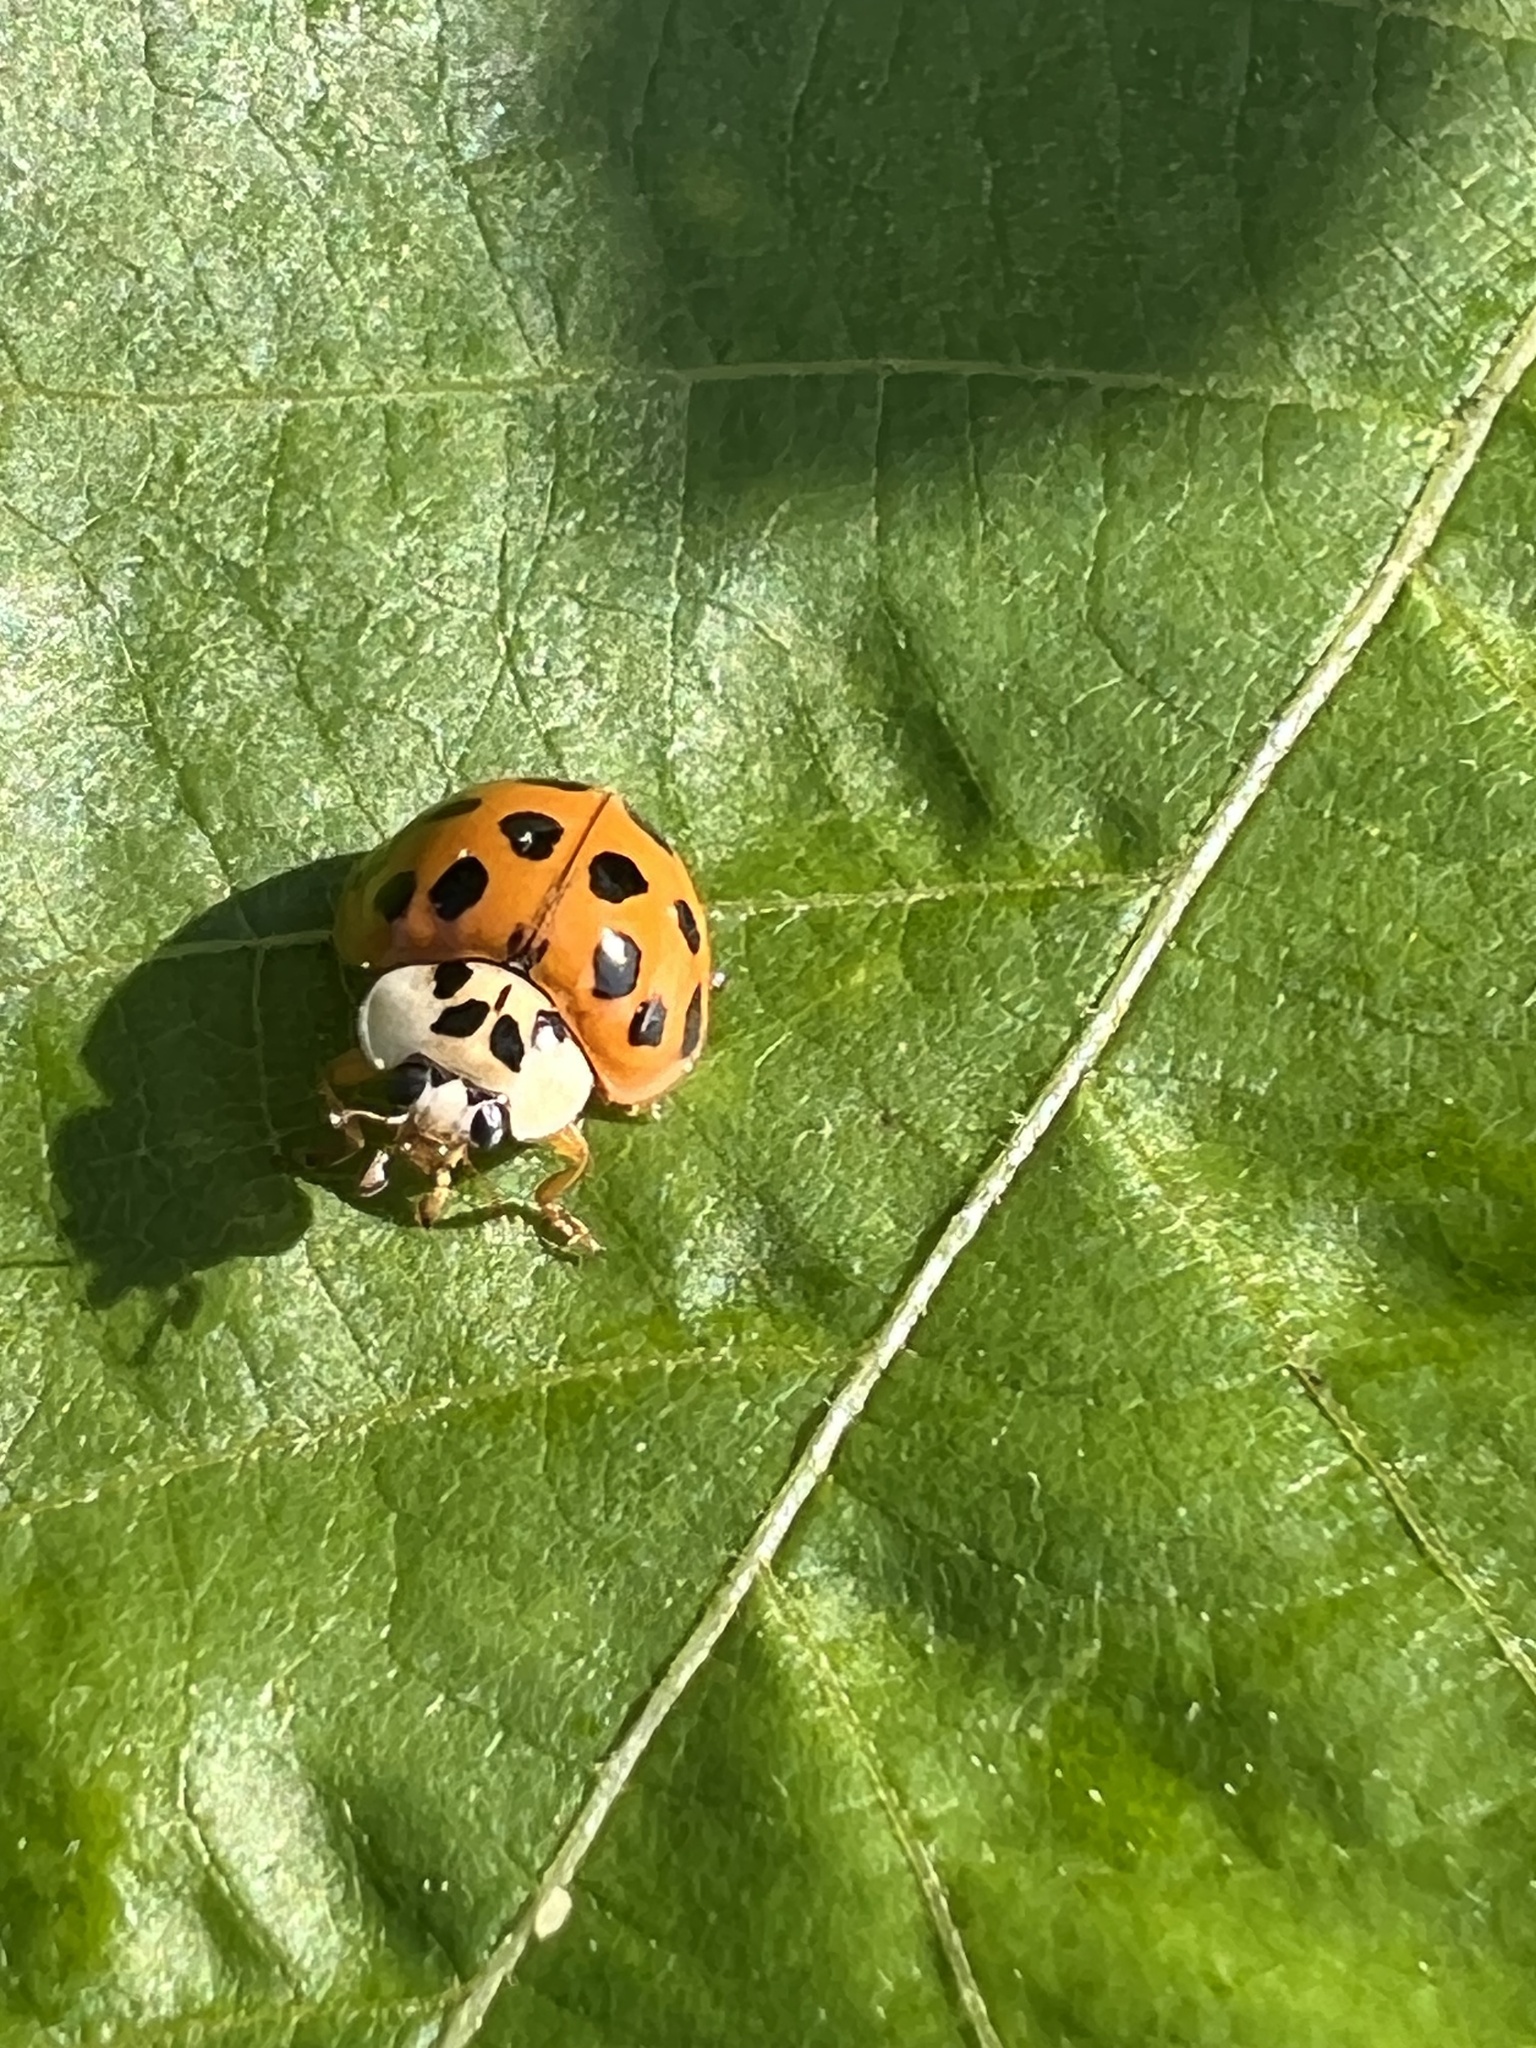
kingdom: Animalia
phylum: Arthropoda
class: Insecta
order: Coleoptera
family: Coccinellidae
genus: Harmonia
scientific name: Harmonia axyridis
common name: Harlequin ladybird
